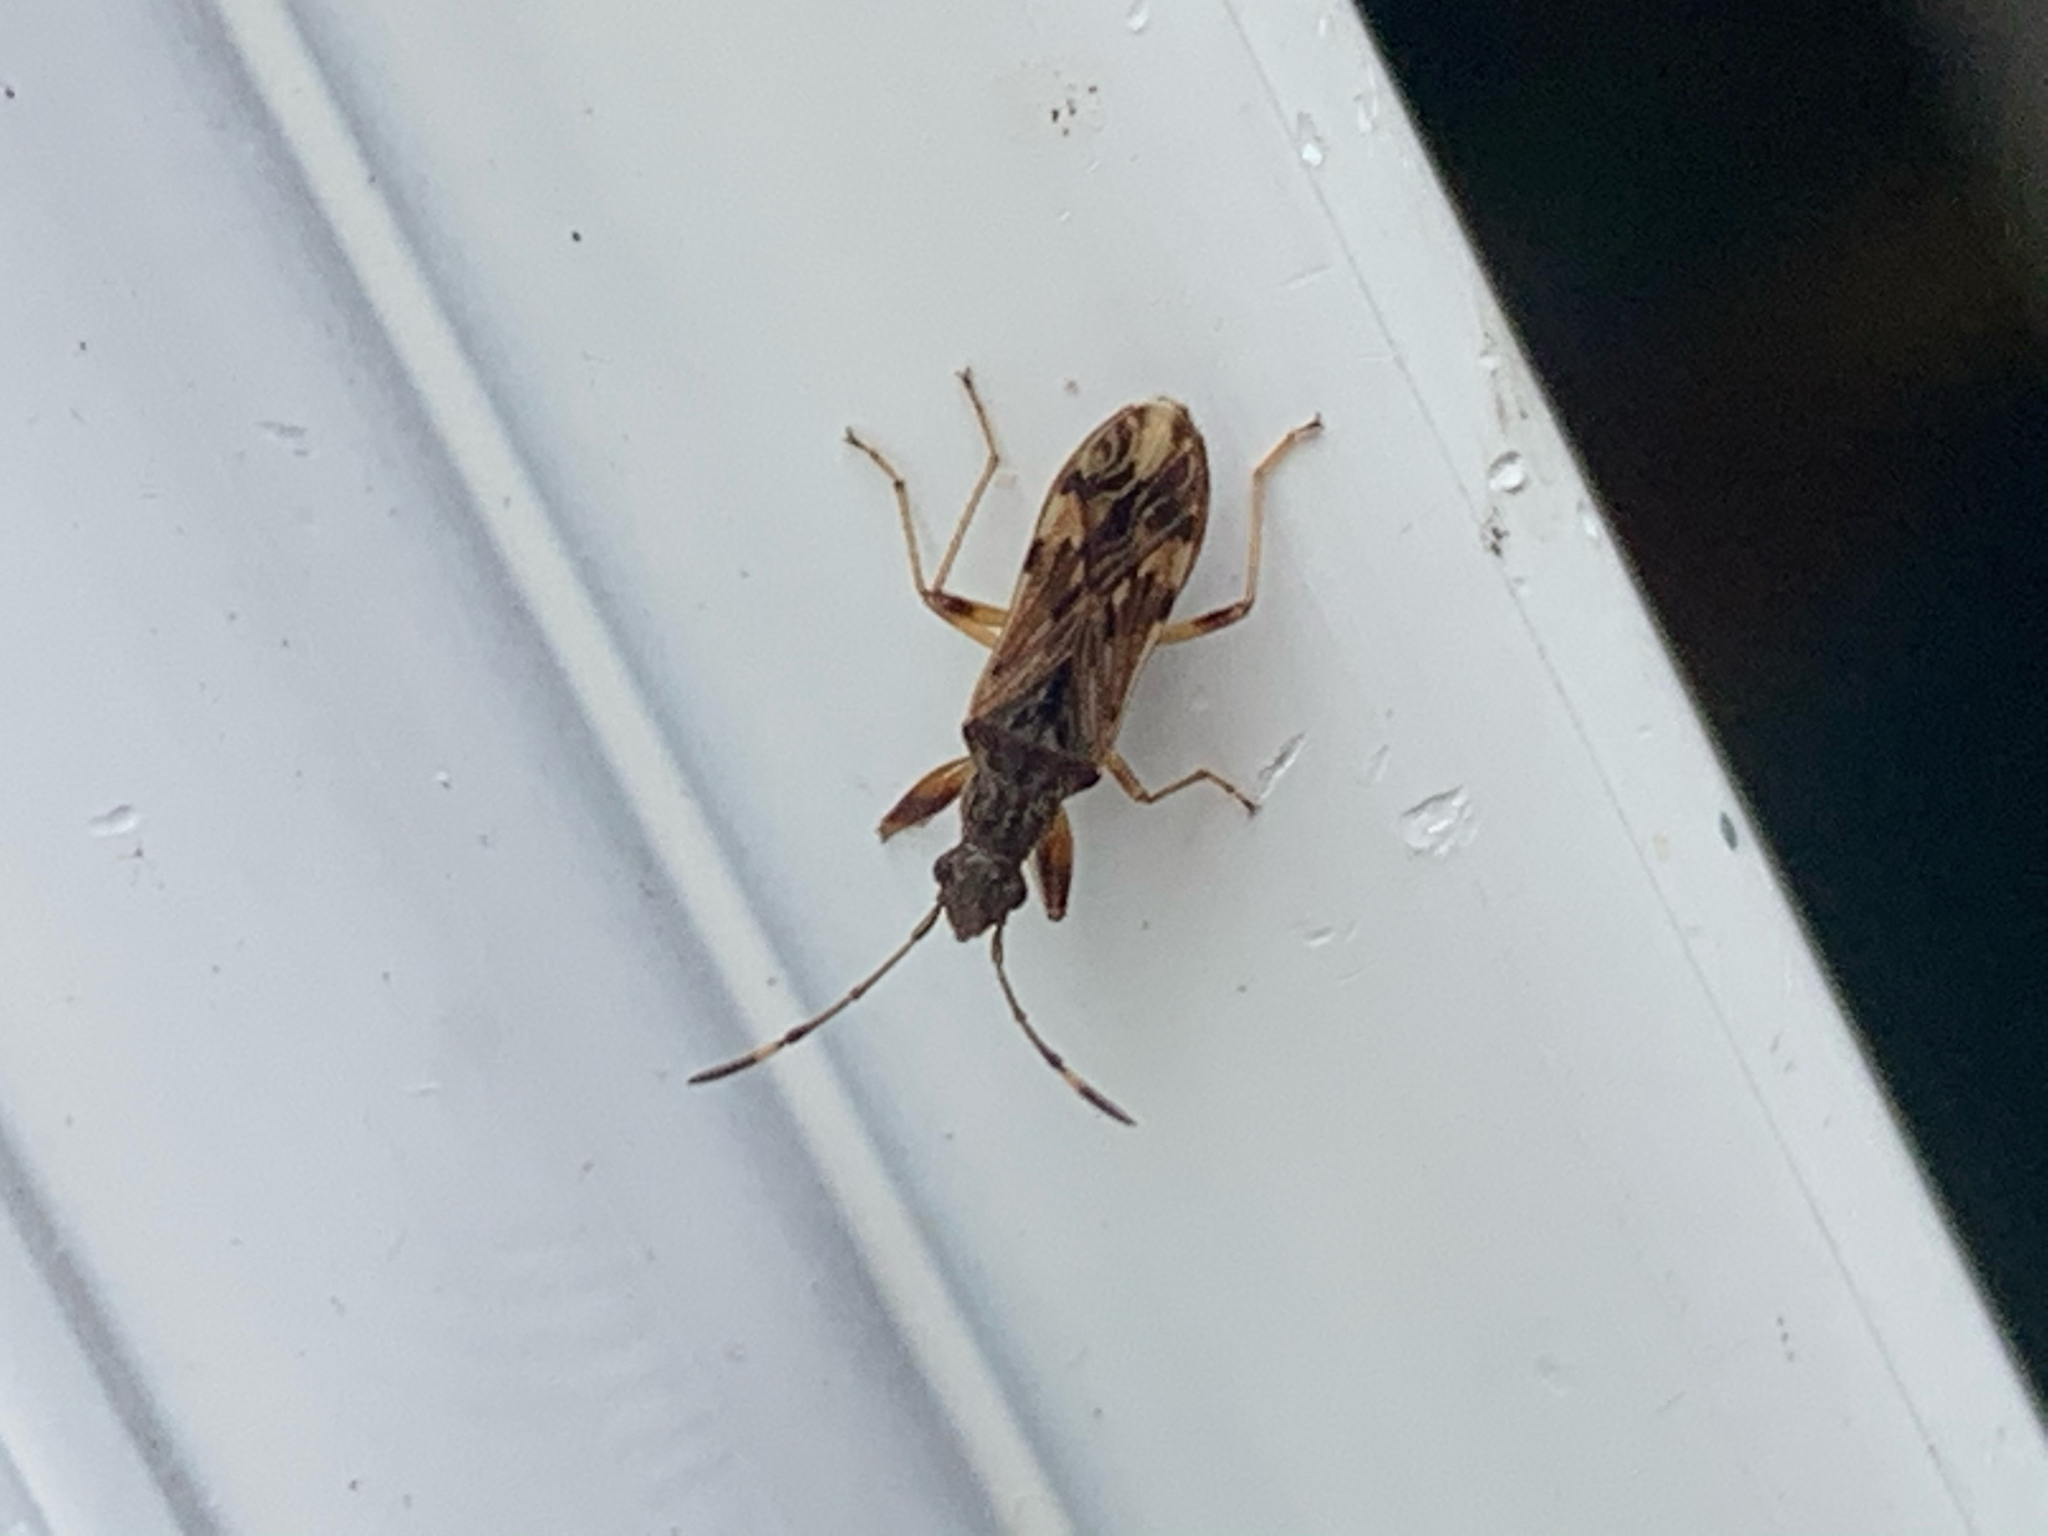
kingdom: Animalia
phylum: Arthropoda
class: Insecta
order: Hemiptera
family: Rhyparochromidae
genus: Neopamera
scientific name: Neopamera albocincta
